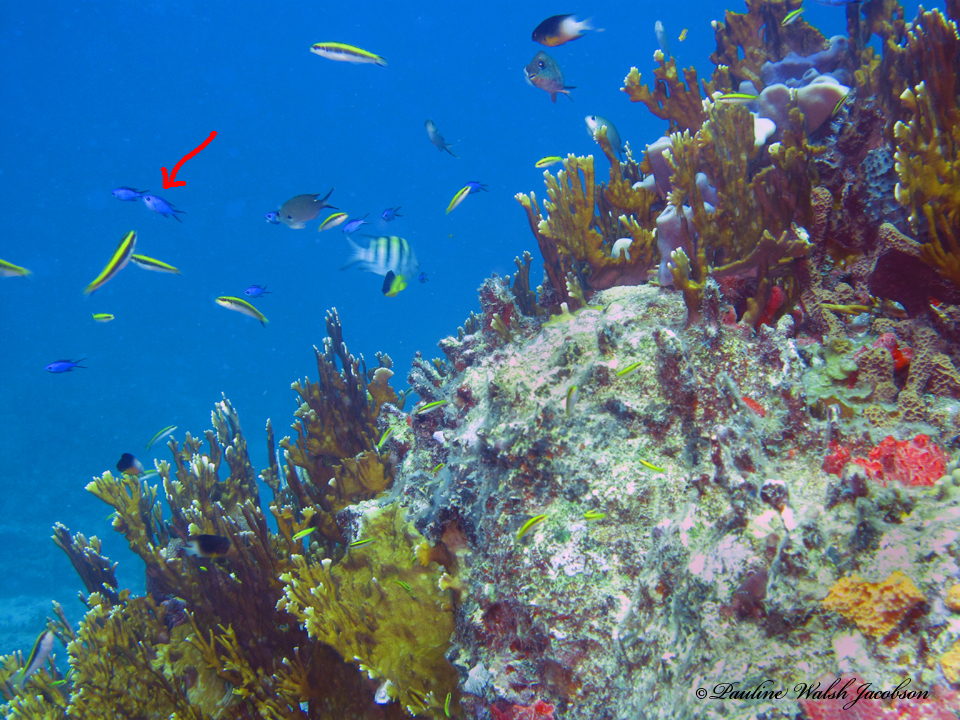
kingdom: Animalia
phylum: Chordata
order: Perciformes
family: Pomacentridae
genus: Chromis
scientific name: Chromis cyanea
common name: Blue chromis
